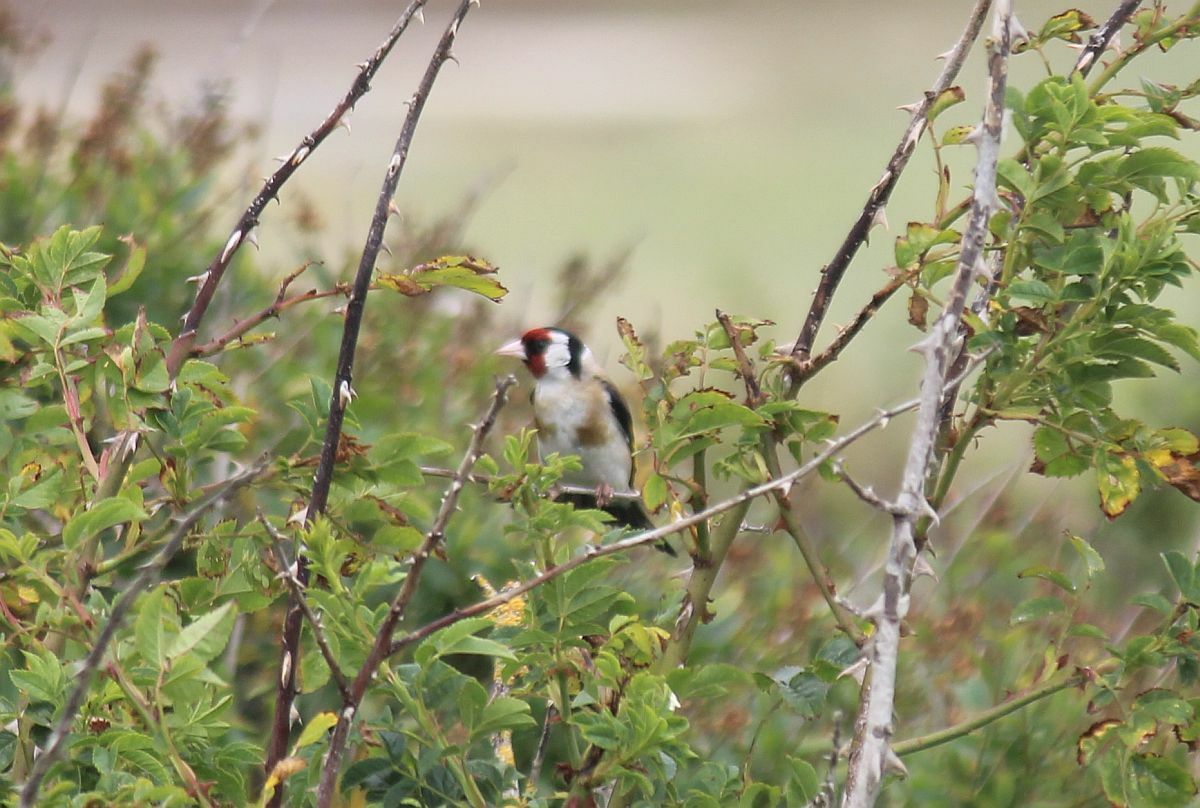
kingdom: Animalia
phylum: Chordata
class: Aves
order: Passeriformes
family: Fringillidae
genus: Carduelis
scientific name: Carduelis carduelis
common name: European goldfinch
